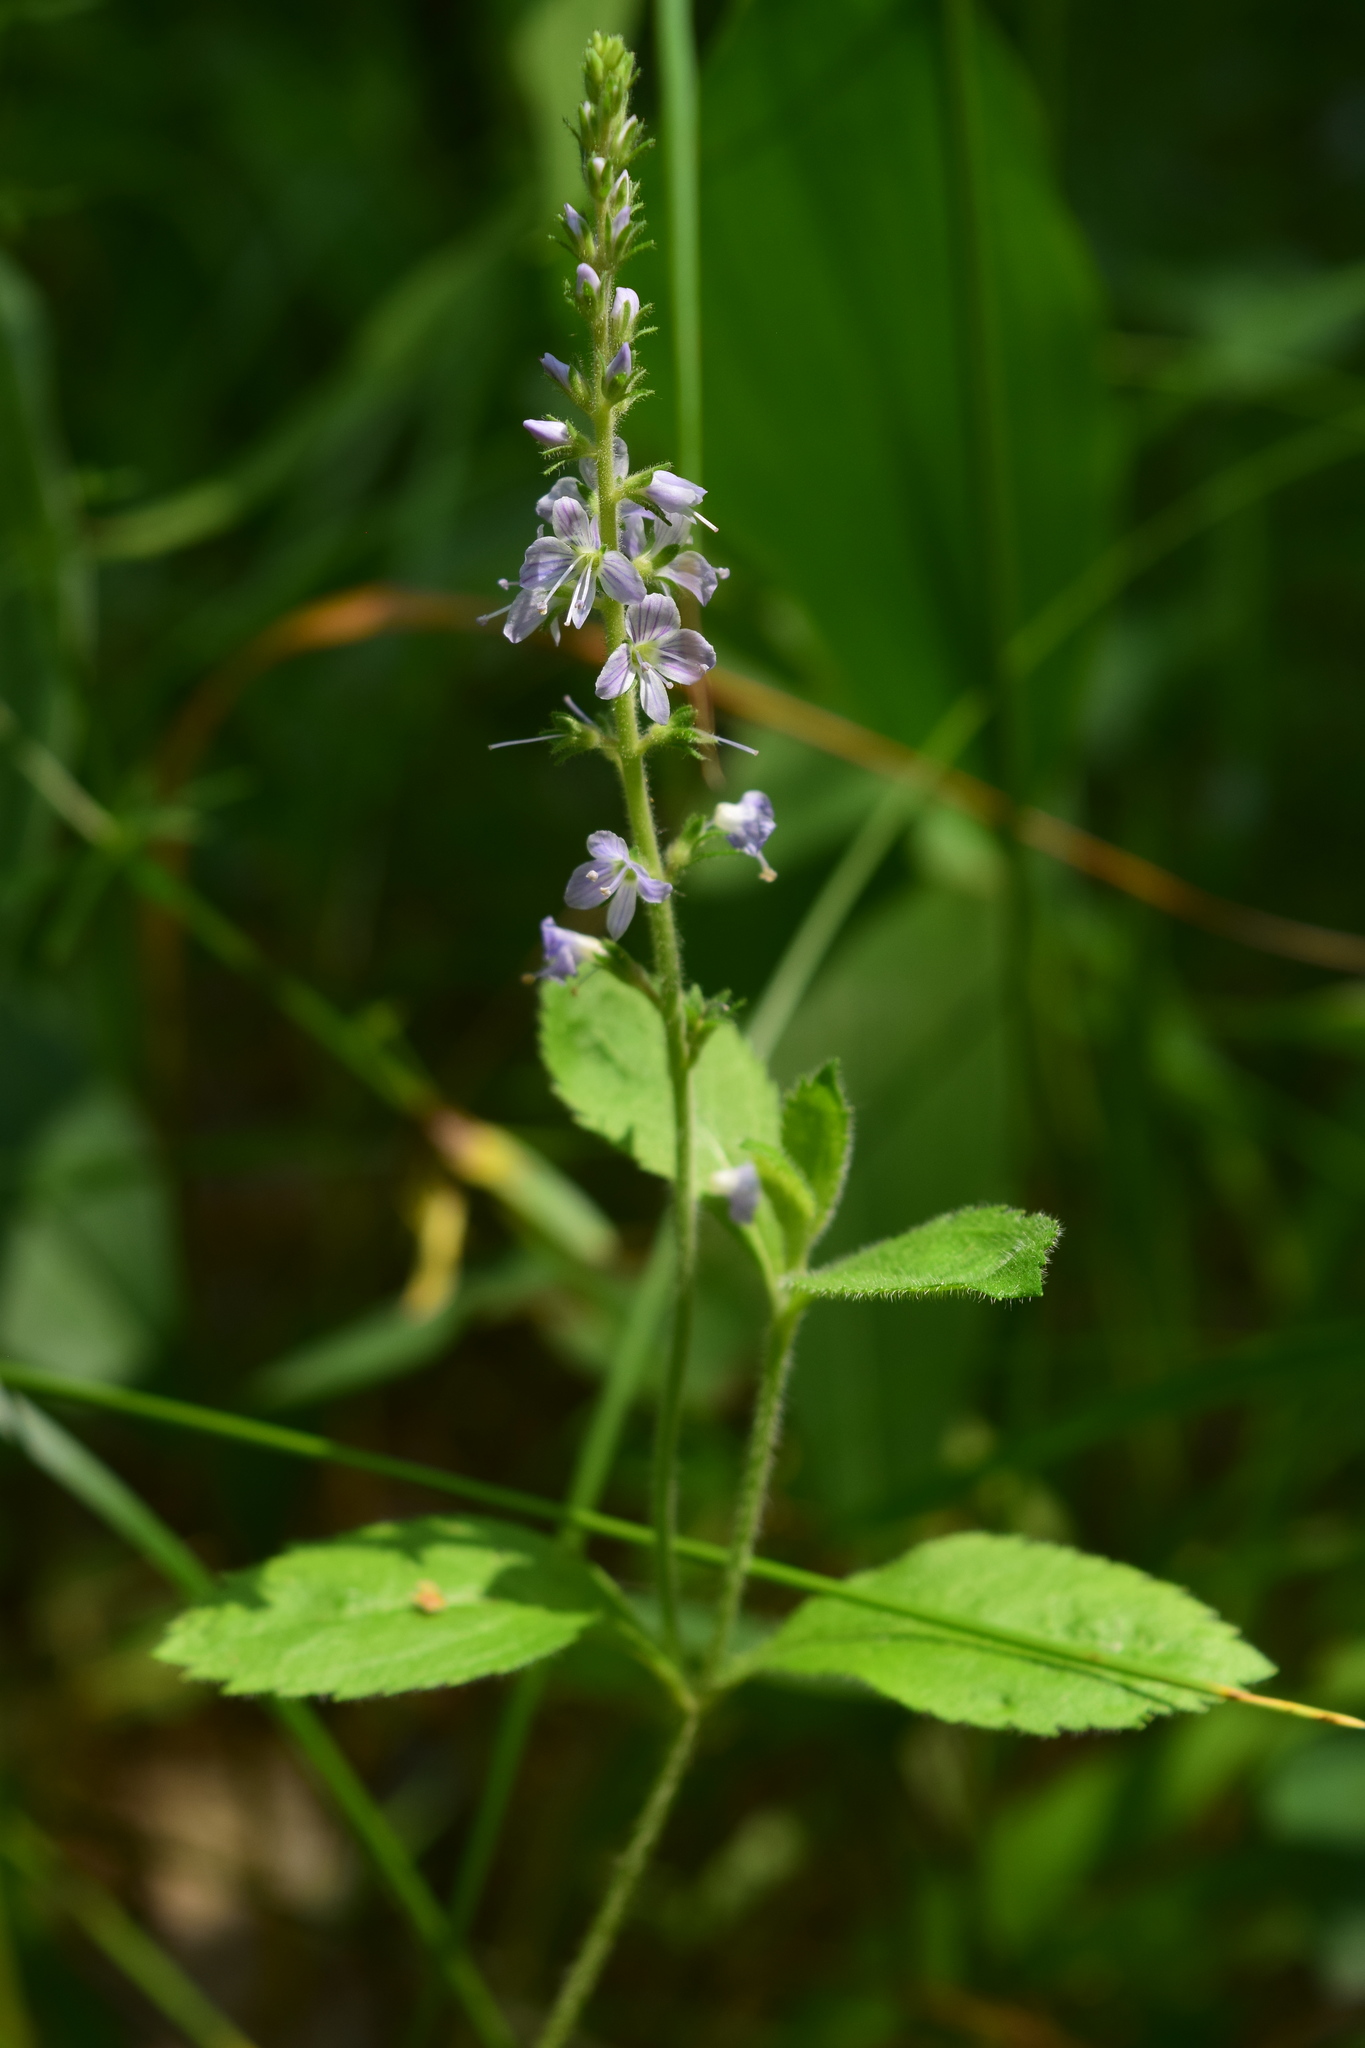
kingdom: Plantae
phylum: Tracheophyta
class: Magnoliopsida
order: Lamiales
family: Plantaginaceae
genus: Veronica
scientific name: Veronica officinalis
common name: Common speedwell
